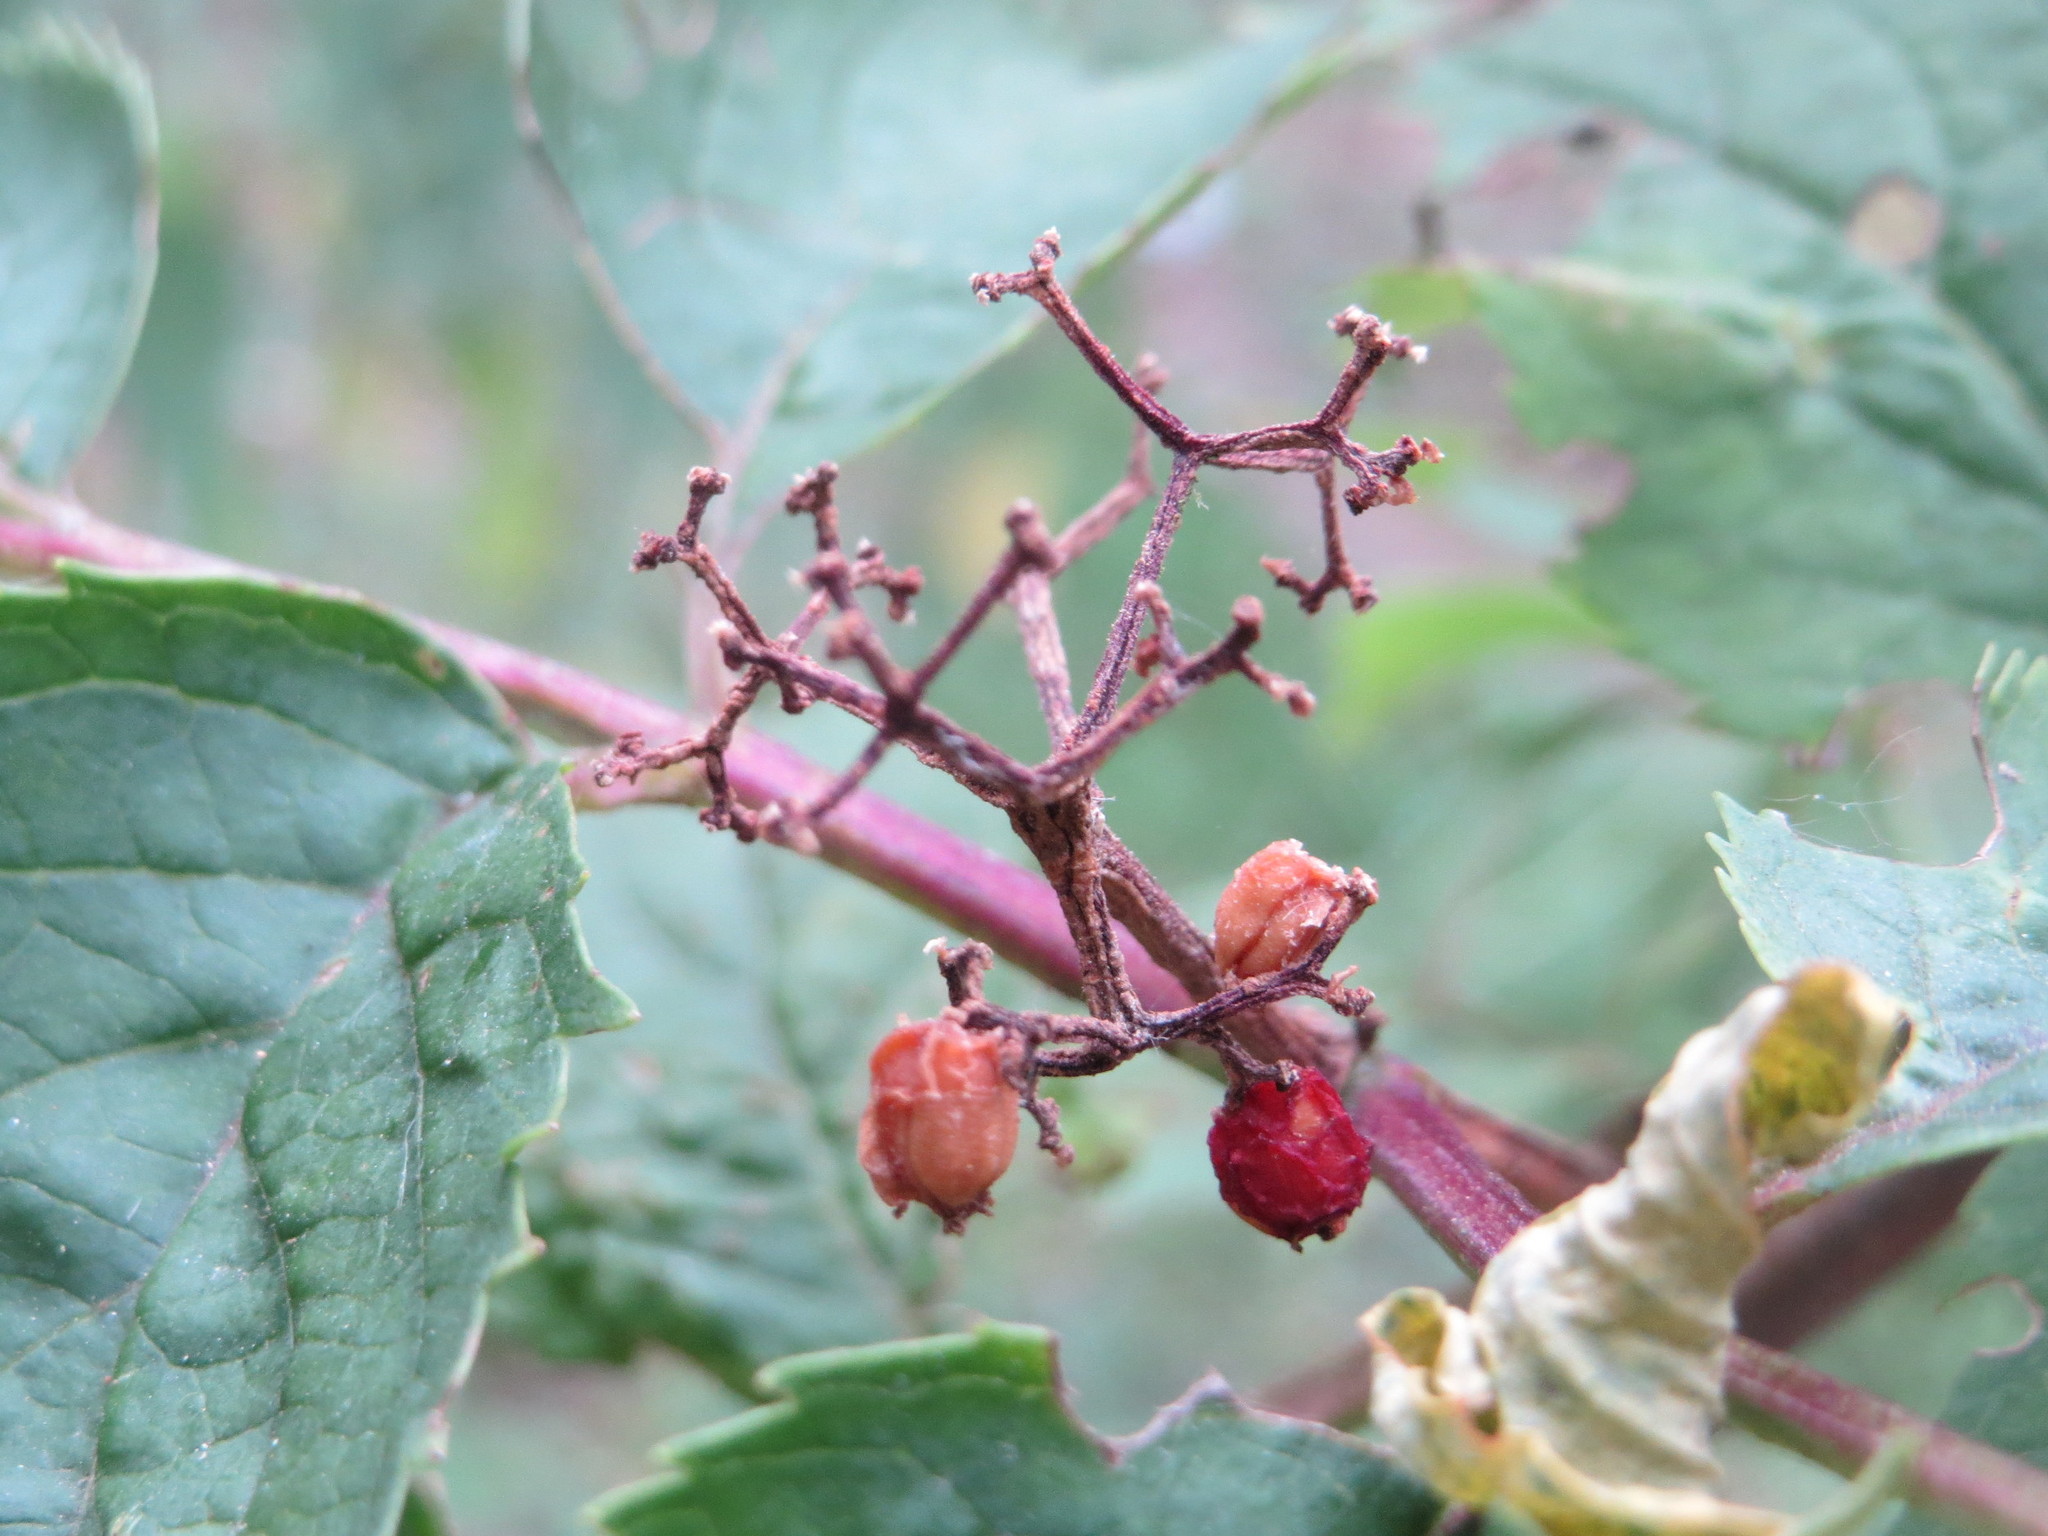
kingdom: Plantae
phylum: Tracheophyta
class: Magnoliopsida
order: Dipsacales
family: Viburnaceae
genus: Sambucus
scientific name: Sambucus racemosa
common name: Red-berried elder
